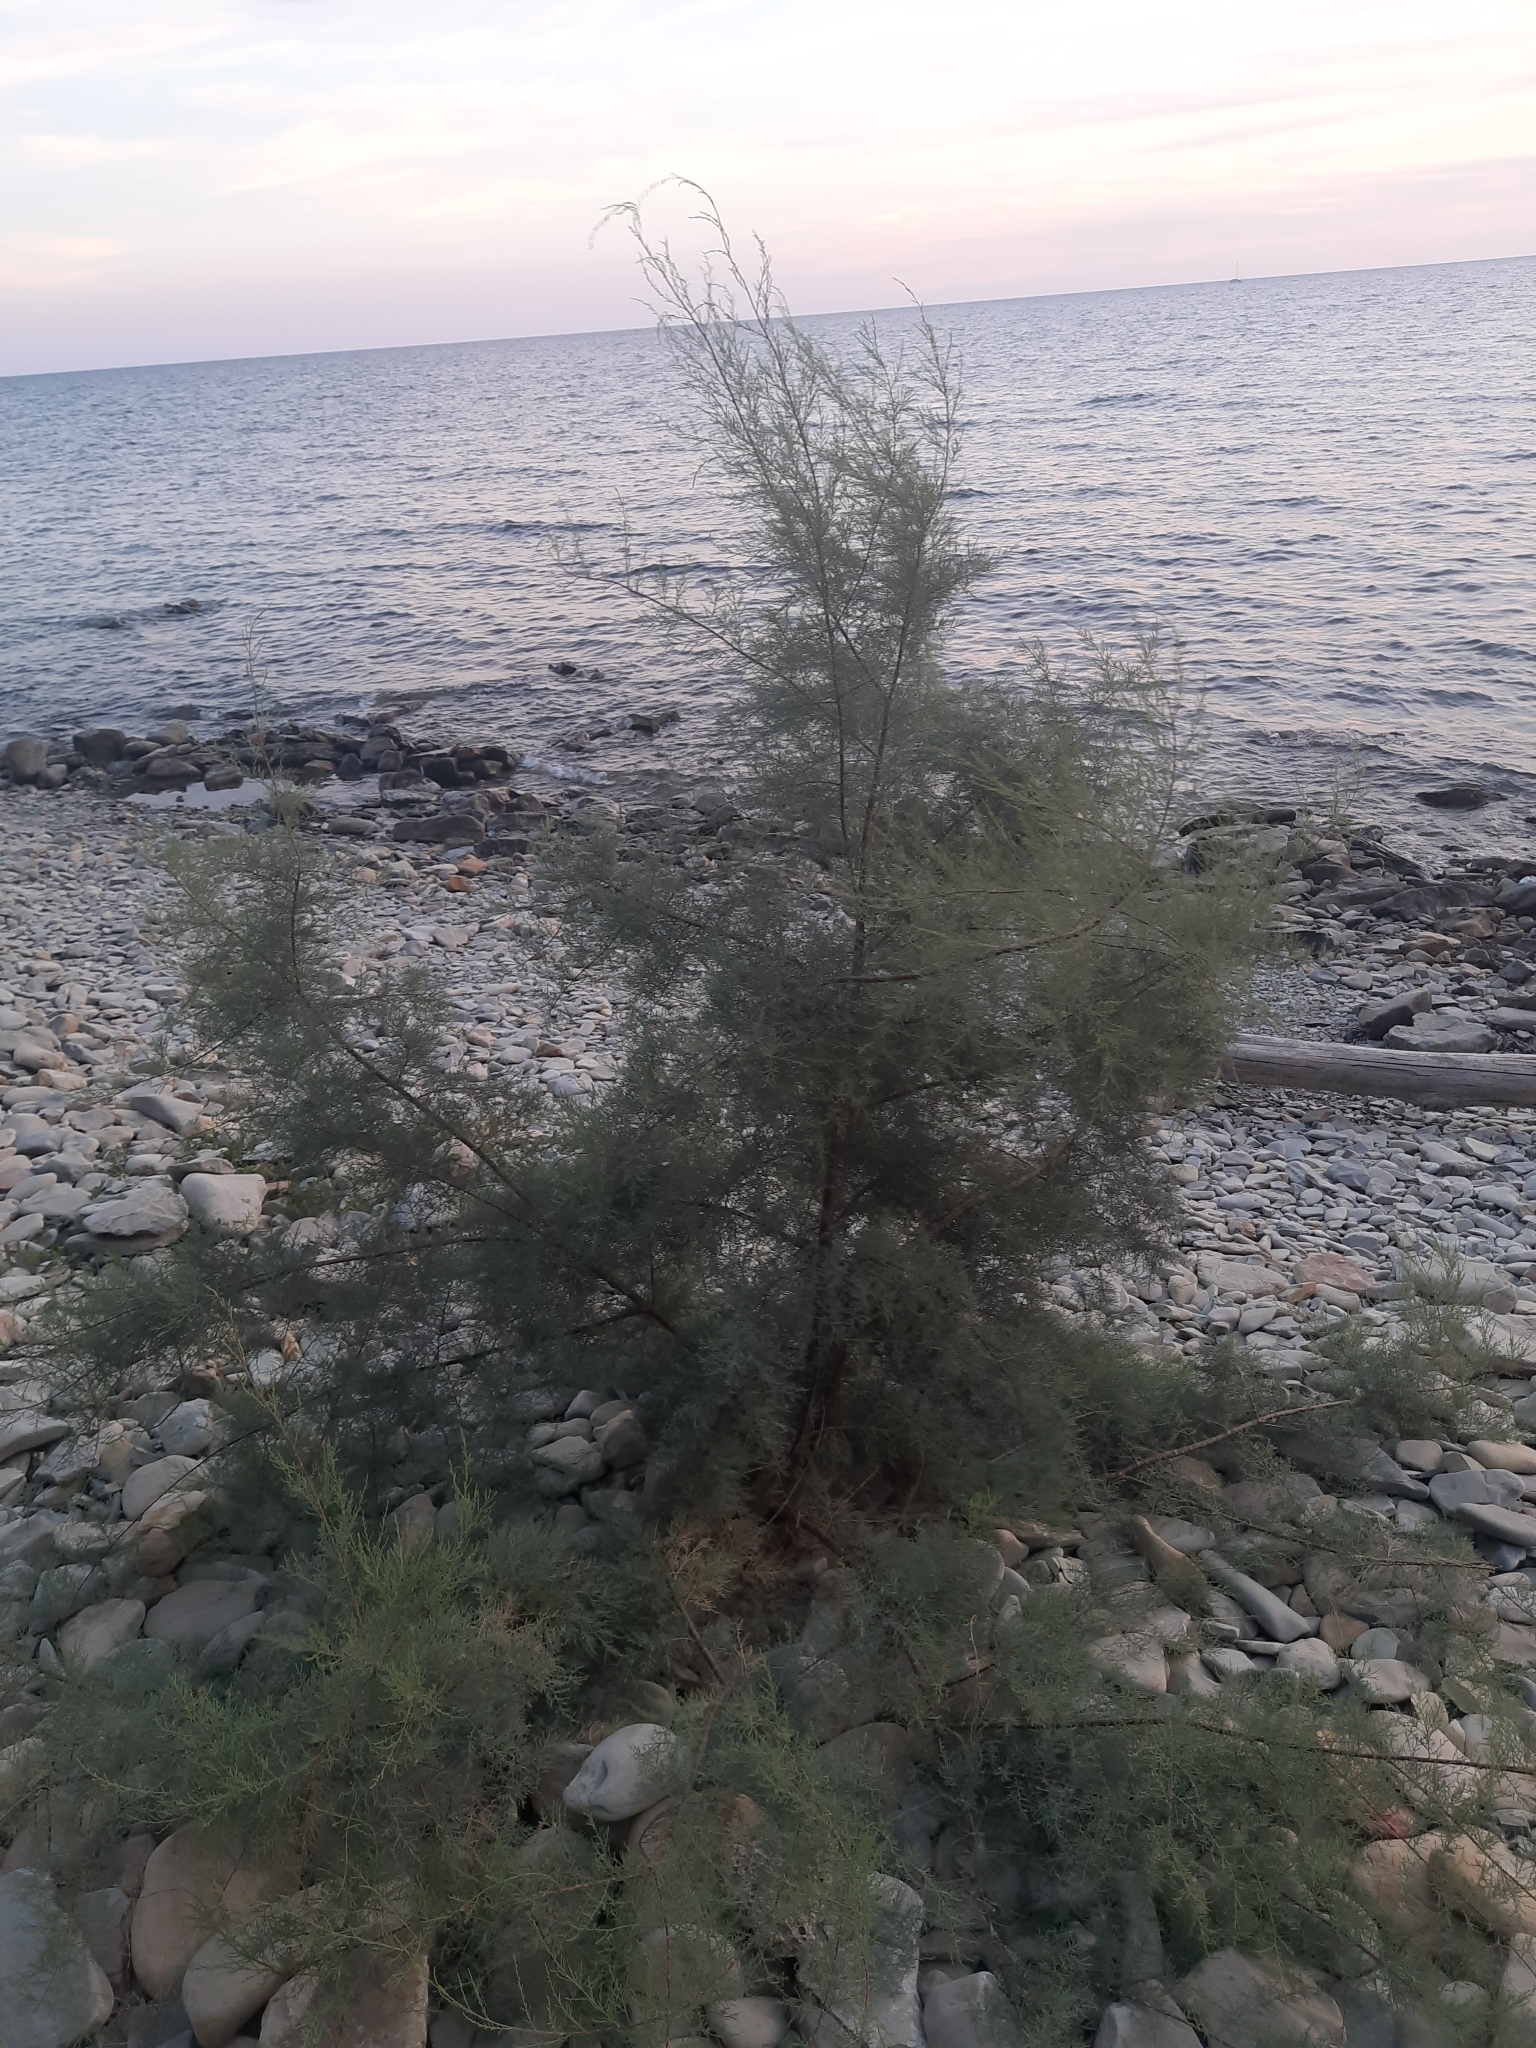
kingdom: Plantae
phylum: Tracheophyta
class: Magnoliopsida
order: Caryophyllales
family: Tamaricaceae
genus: Tamarix
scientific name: Tamarix ramosissima
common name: Pink tamarisk
